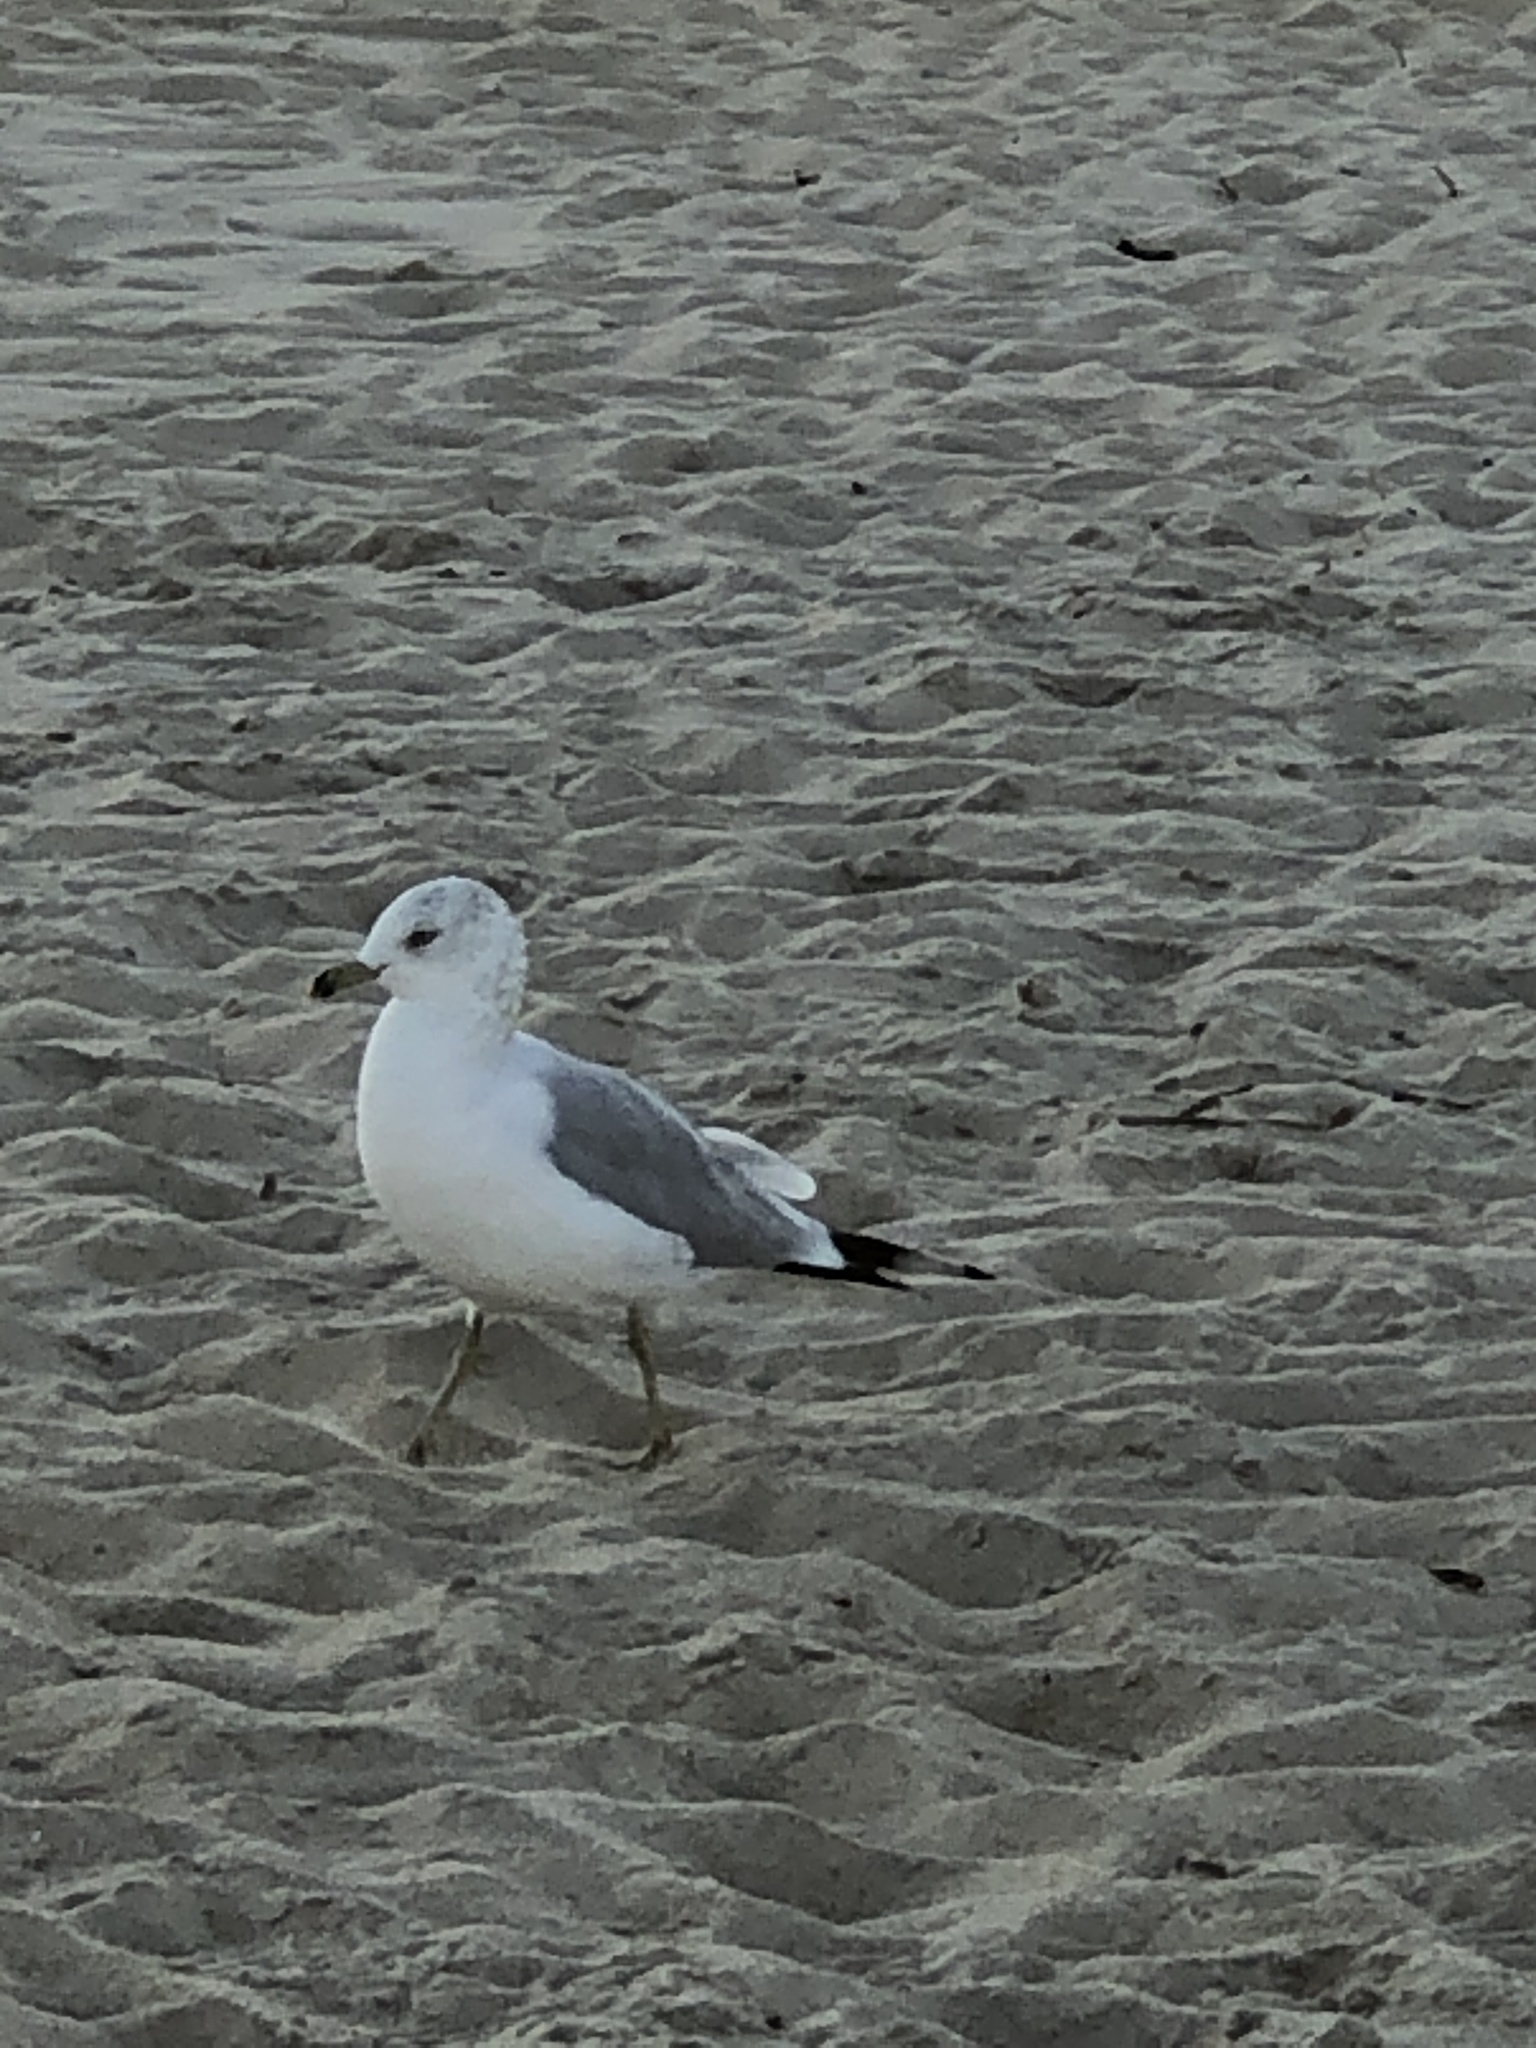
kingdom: Animalia
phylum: Chordata
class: Aves
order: Charadriiformes
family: Laridae
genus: Larus
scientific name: Larus delawarensis
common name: Ring-billed gull
